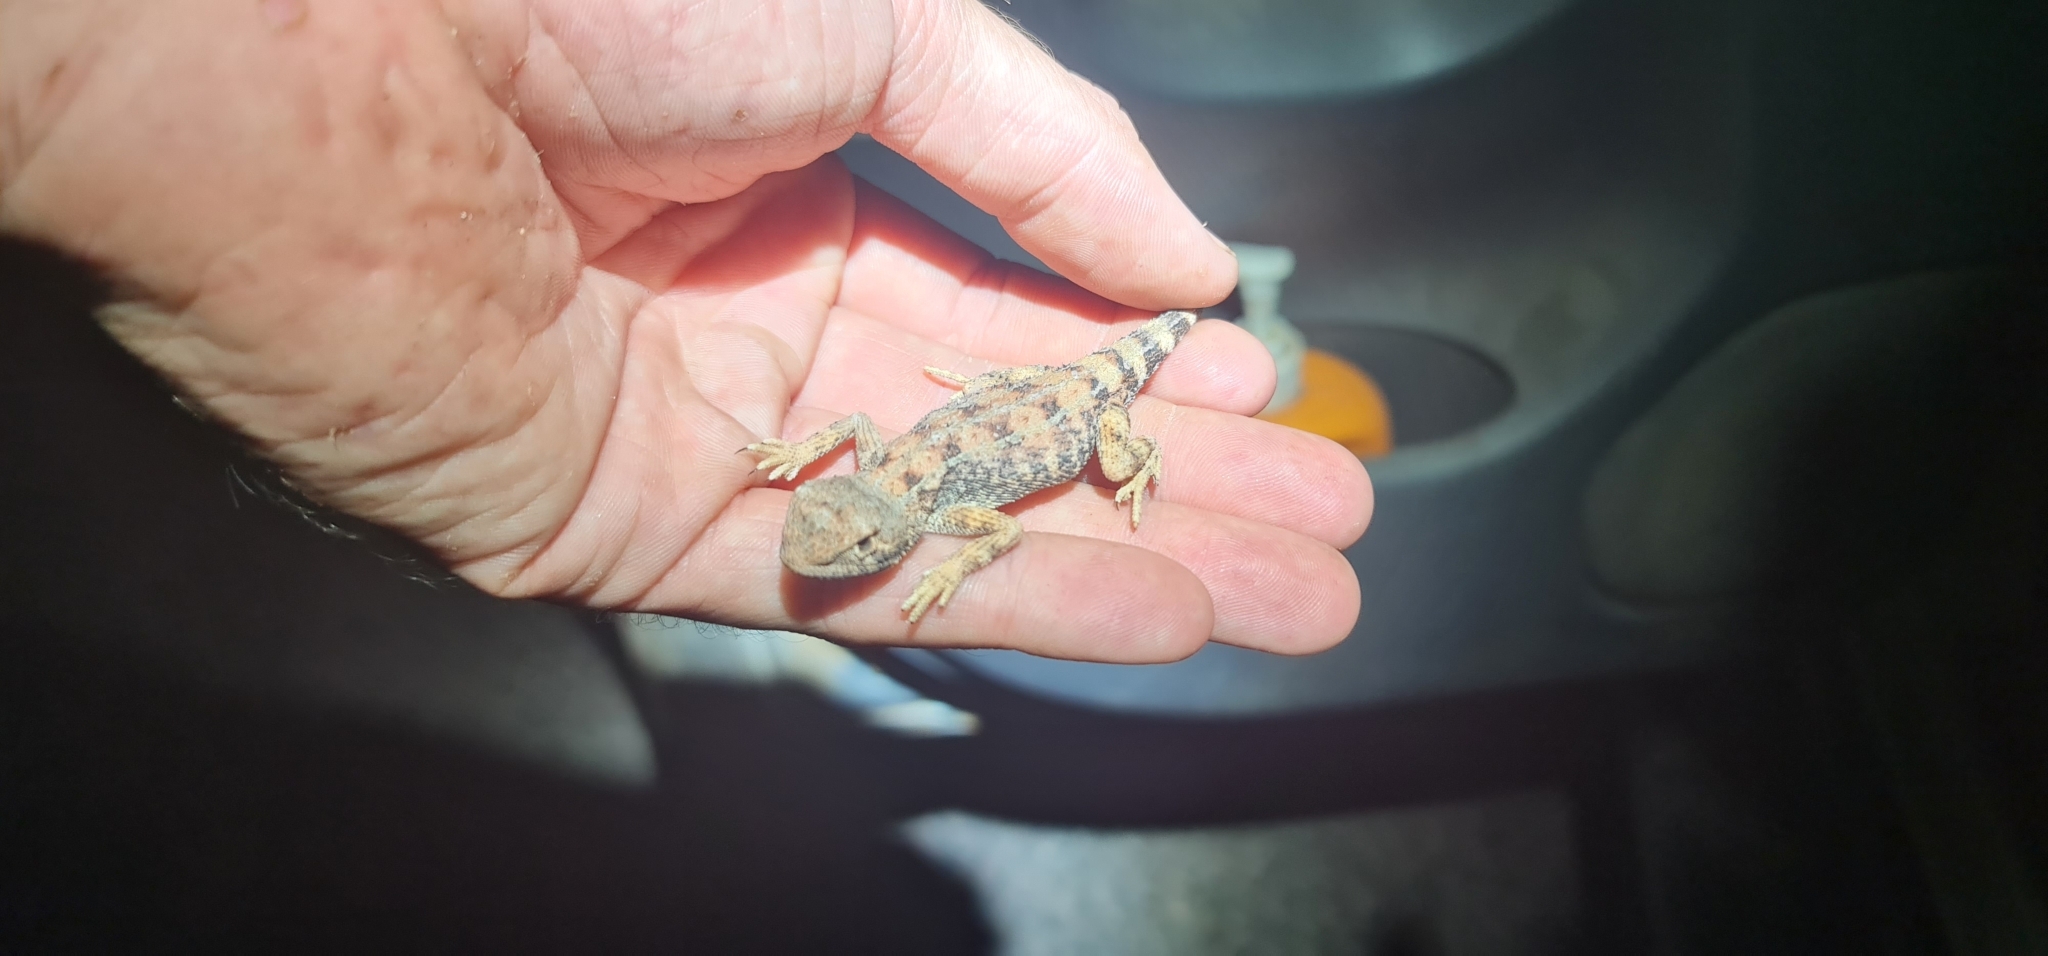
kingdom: Animalia
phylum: Chordata
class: Squamata
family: Agamidae
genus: Tympanocryptis
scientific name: Tympanocryptis tetraporophora
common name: Eyrean earless dragon
